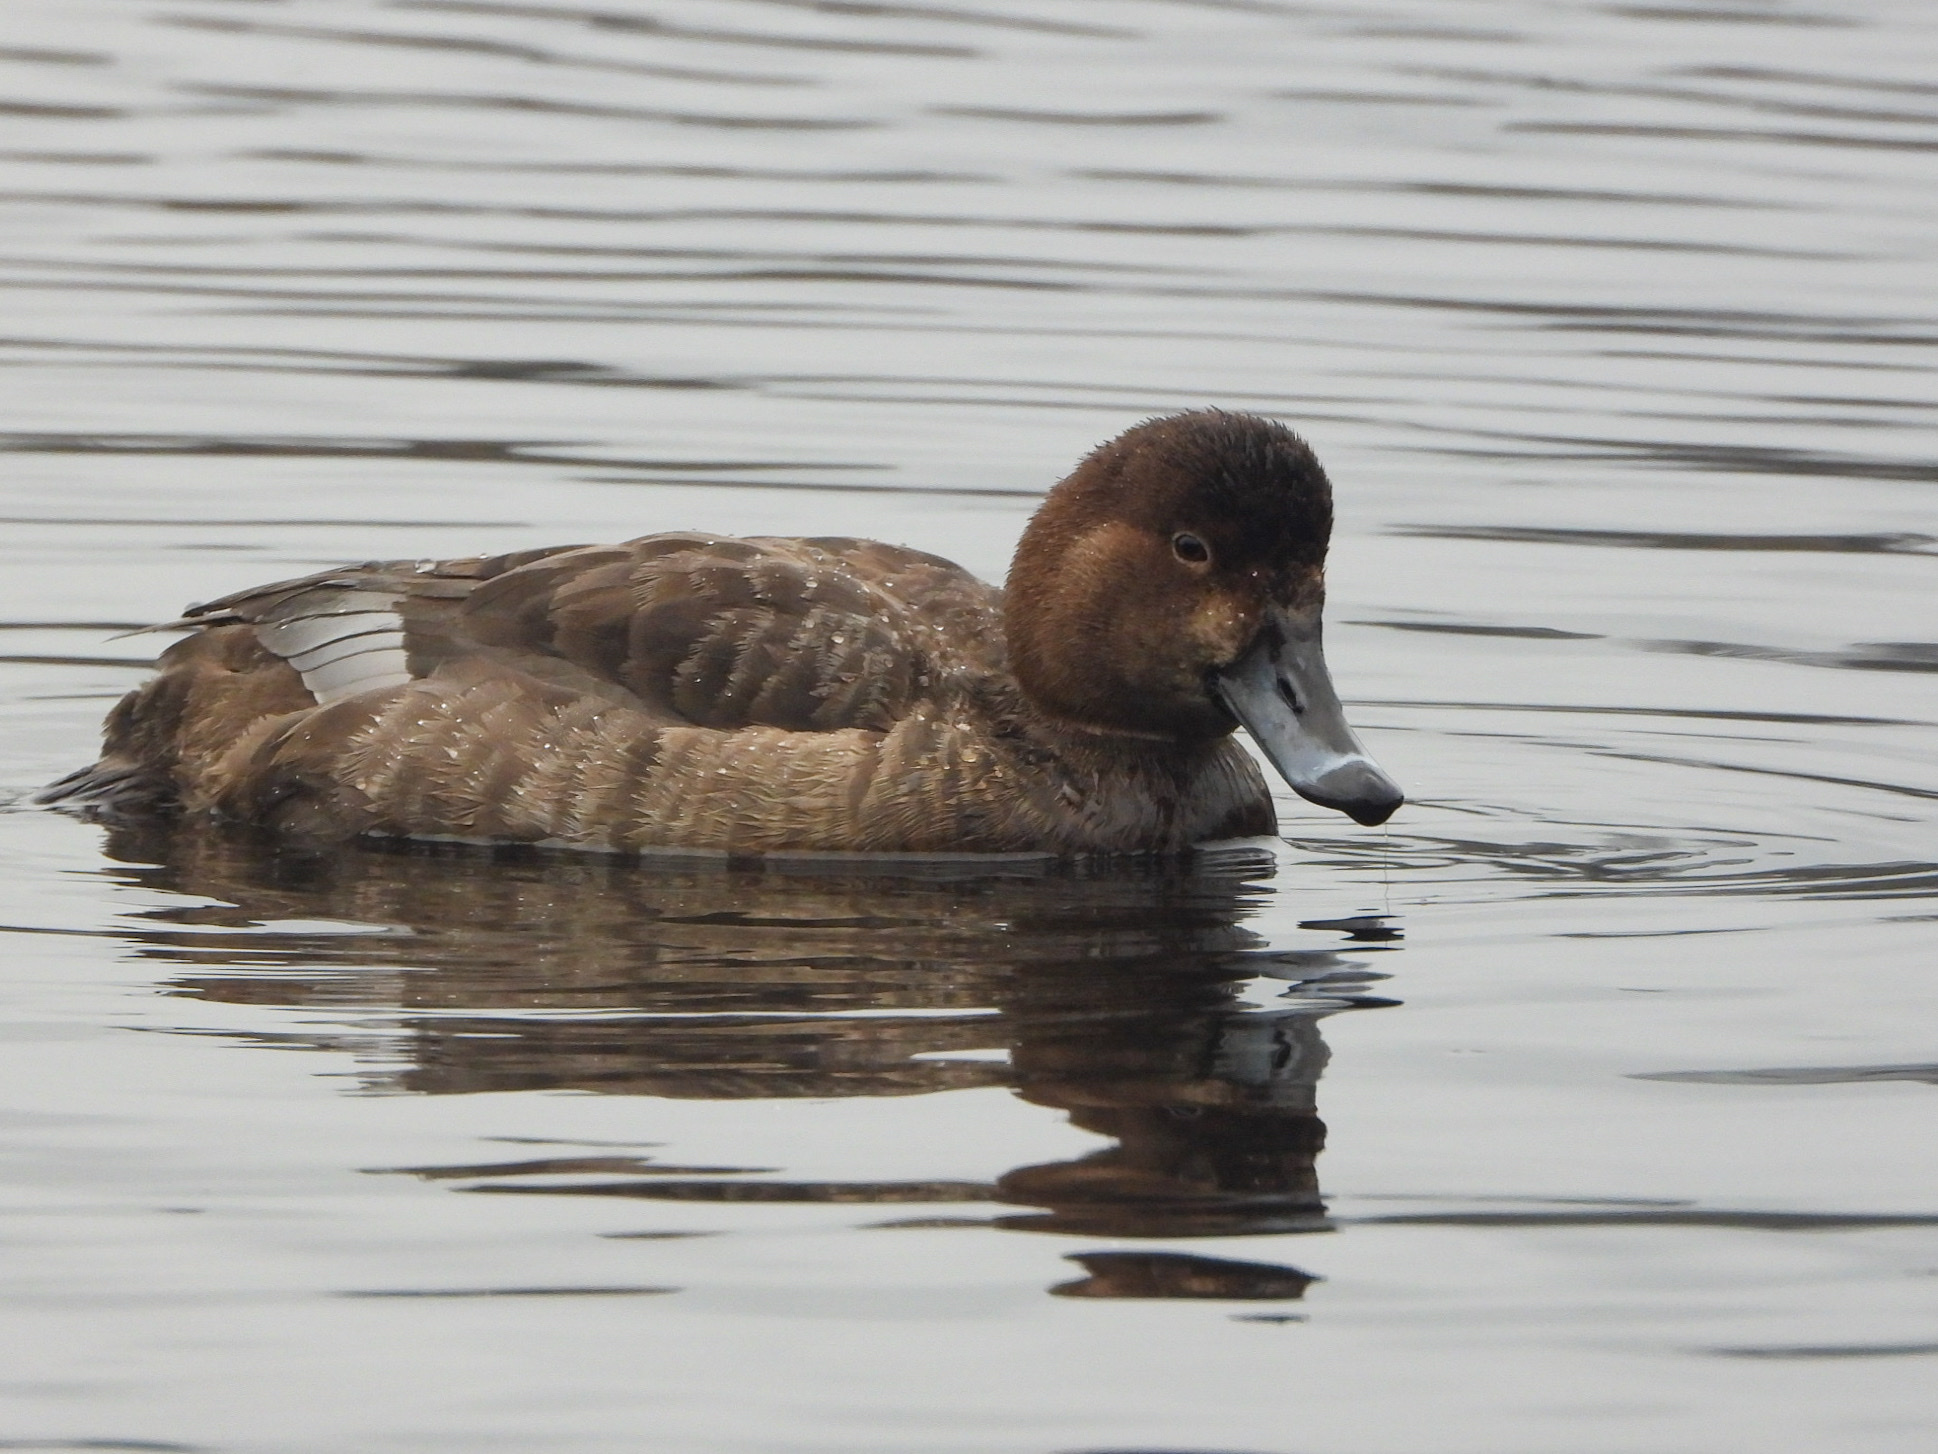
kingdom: Animalia
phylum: Chordata
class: Aves
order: Anseriformes
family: Anatidae
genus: Aythya
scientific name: Aythya americana
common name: Redhead
